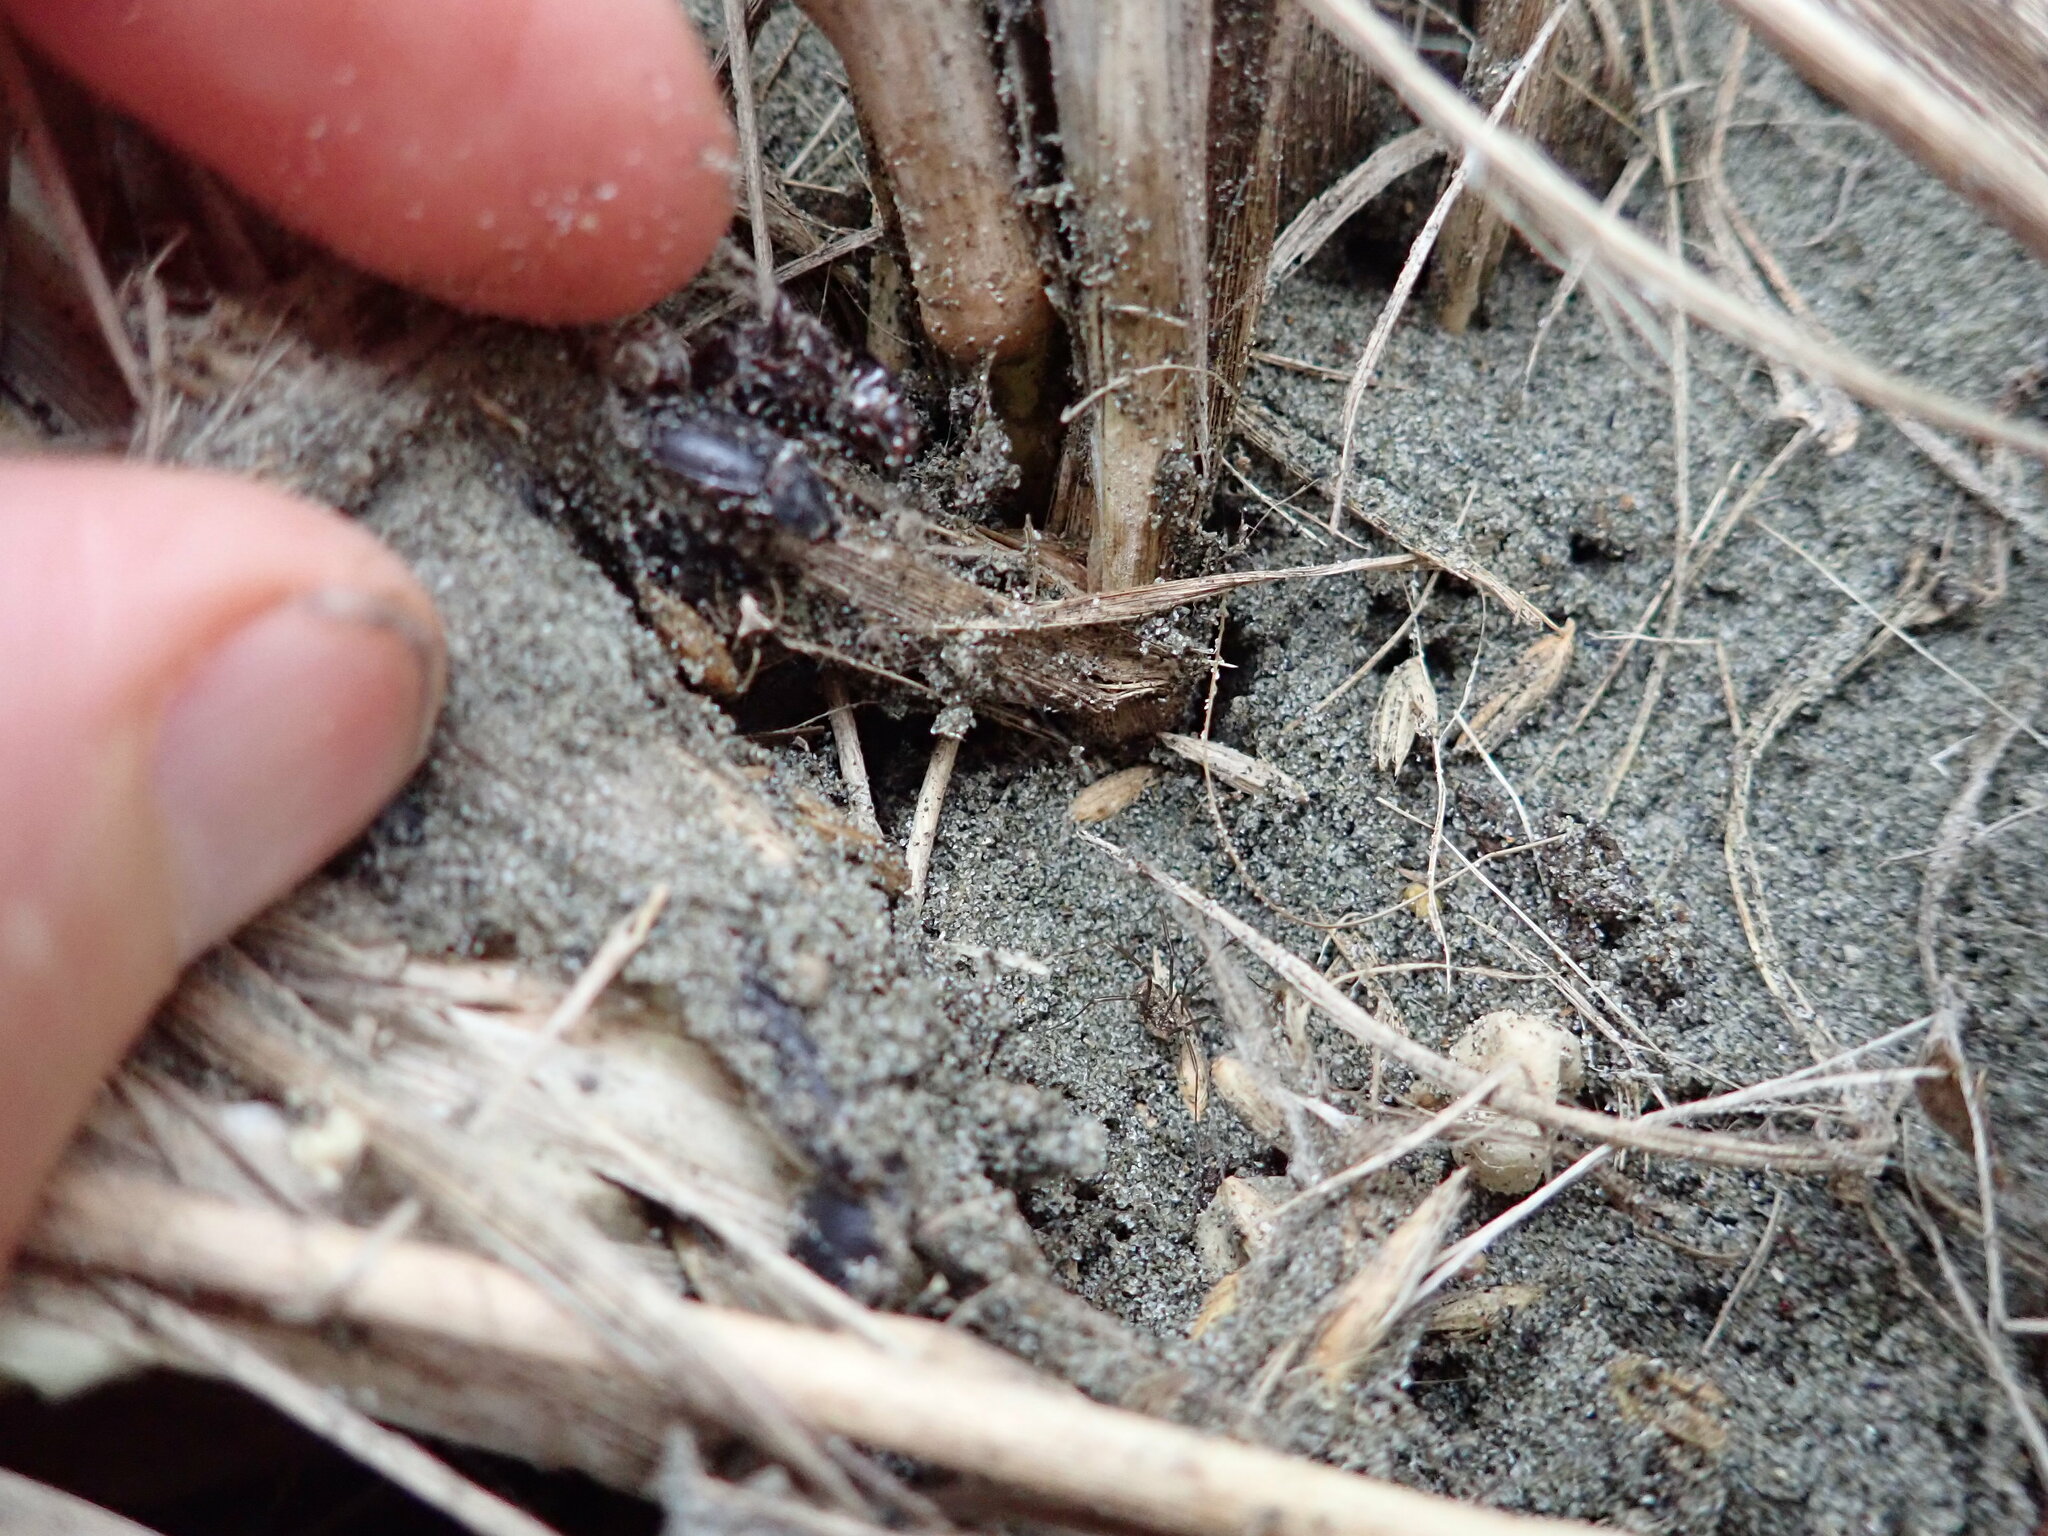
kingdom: Animalia
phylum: Arthropoda
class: Arachnida
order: Araneae
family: Mimetidae
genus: Australomimetus
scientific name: Australomimetus hartleyensis
